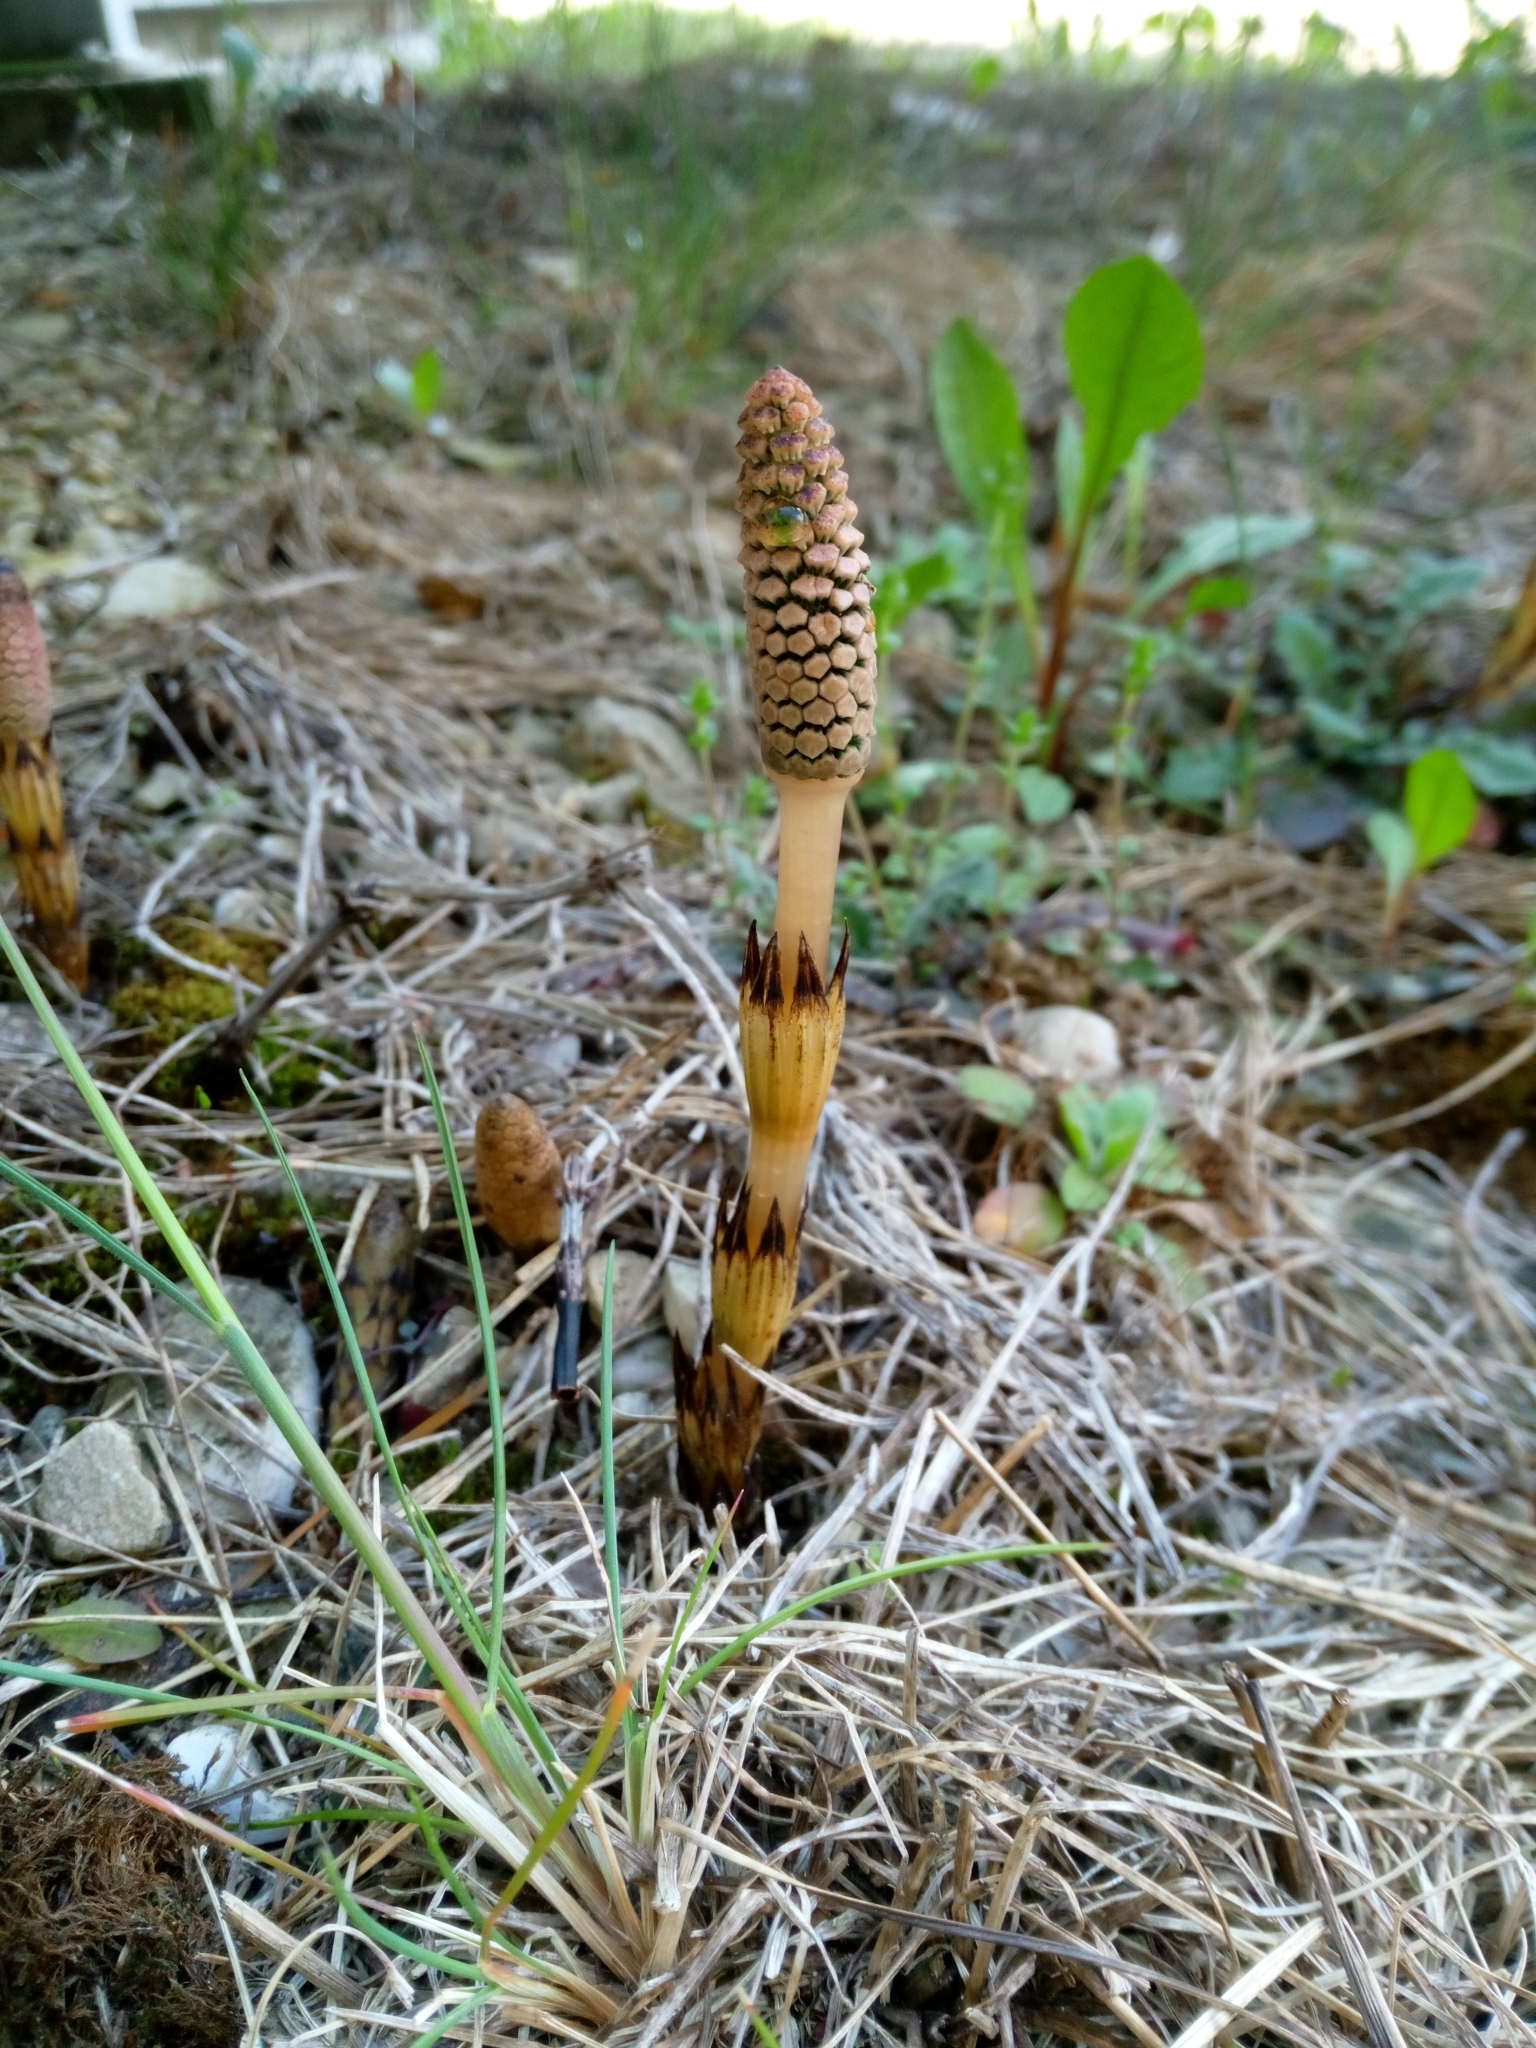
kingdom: Plantae
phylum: Tracheophyta
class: Polypodiopsida
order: Equisetales
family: Equisetaceae
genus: Equisetum
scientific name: Equisetum arvense
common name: Field horsetail
